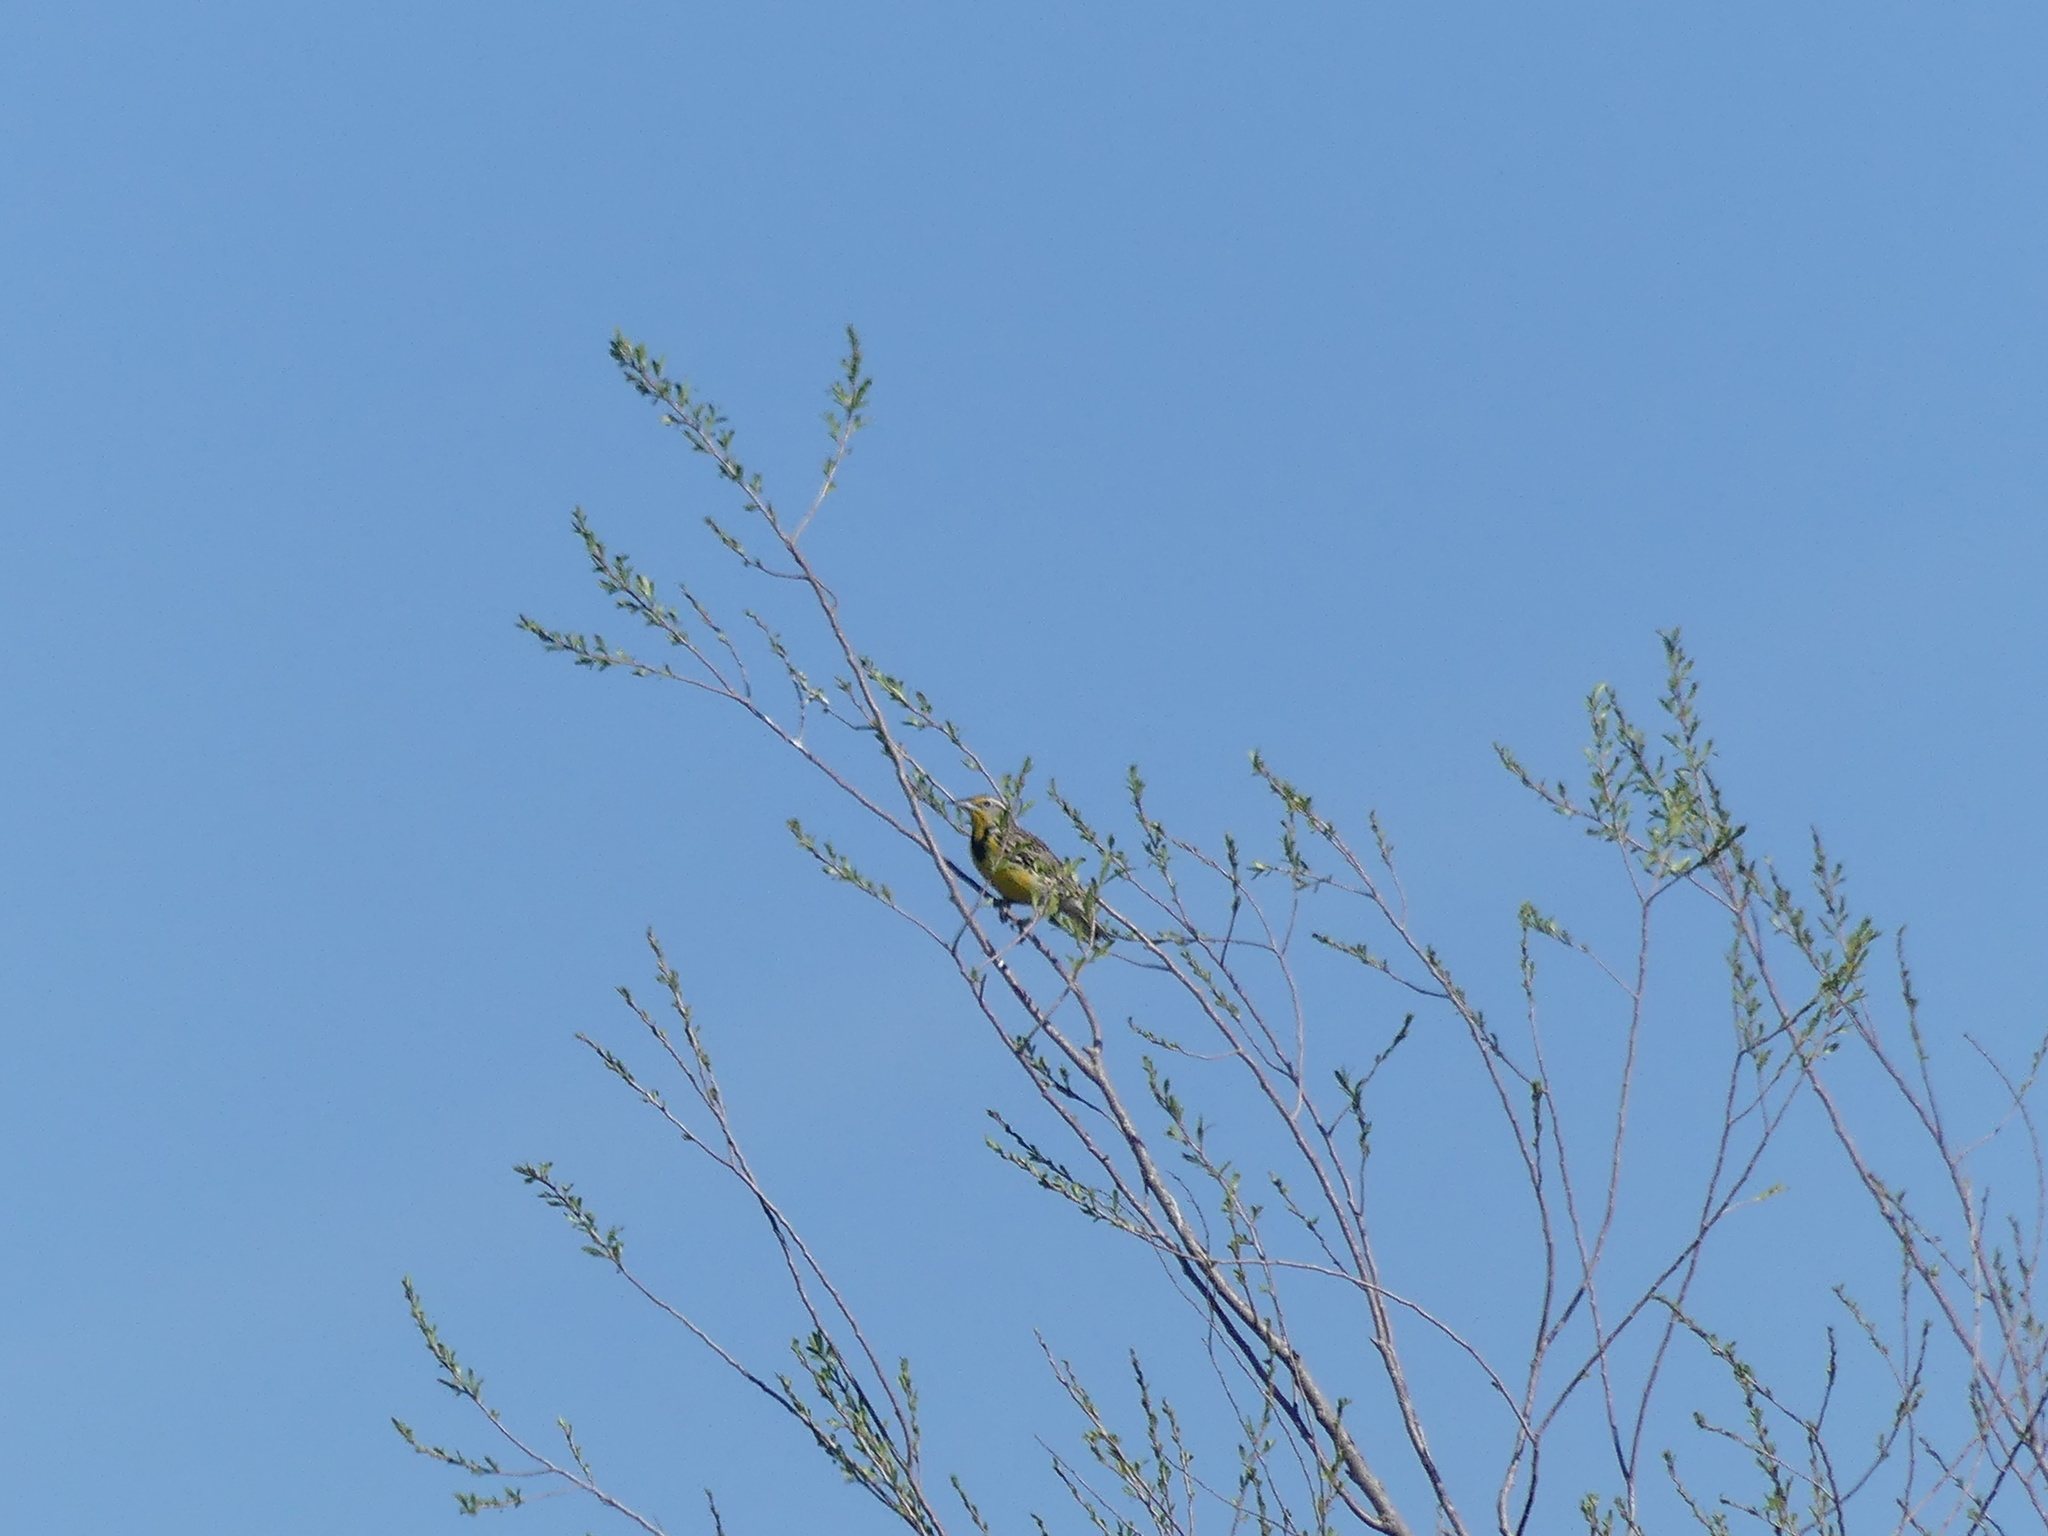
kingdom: Animalia
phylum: Chordata
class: Aves
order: Passeriformes
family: Icteridae
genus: Sturnella
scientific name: Sturnella neglecta
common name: Western meadowlark
